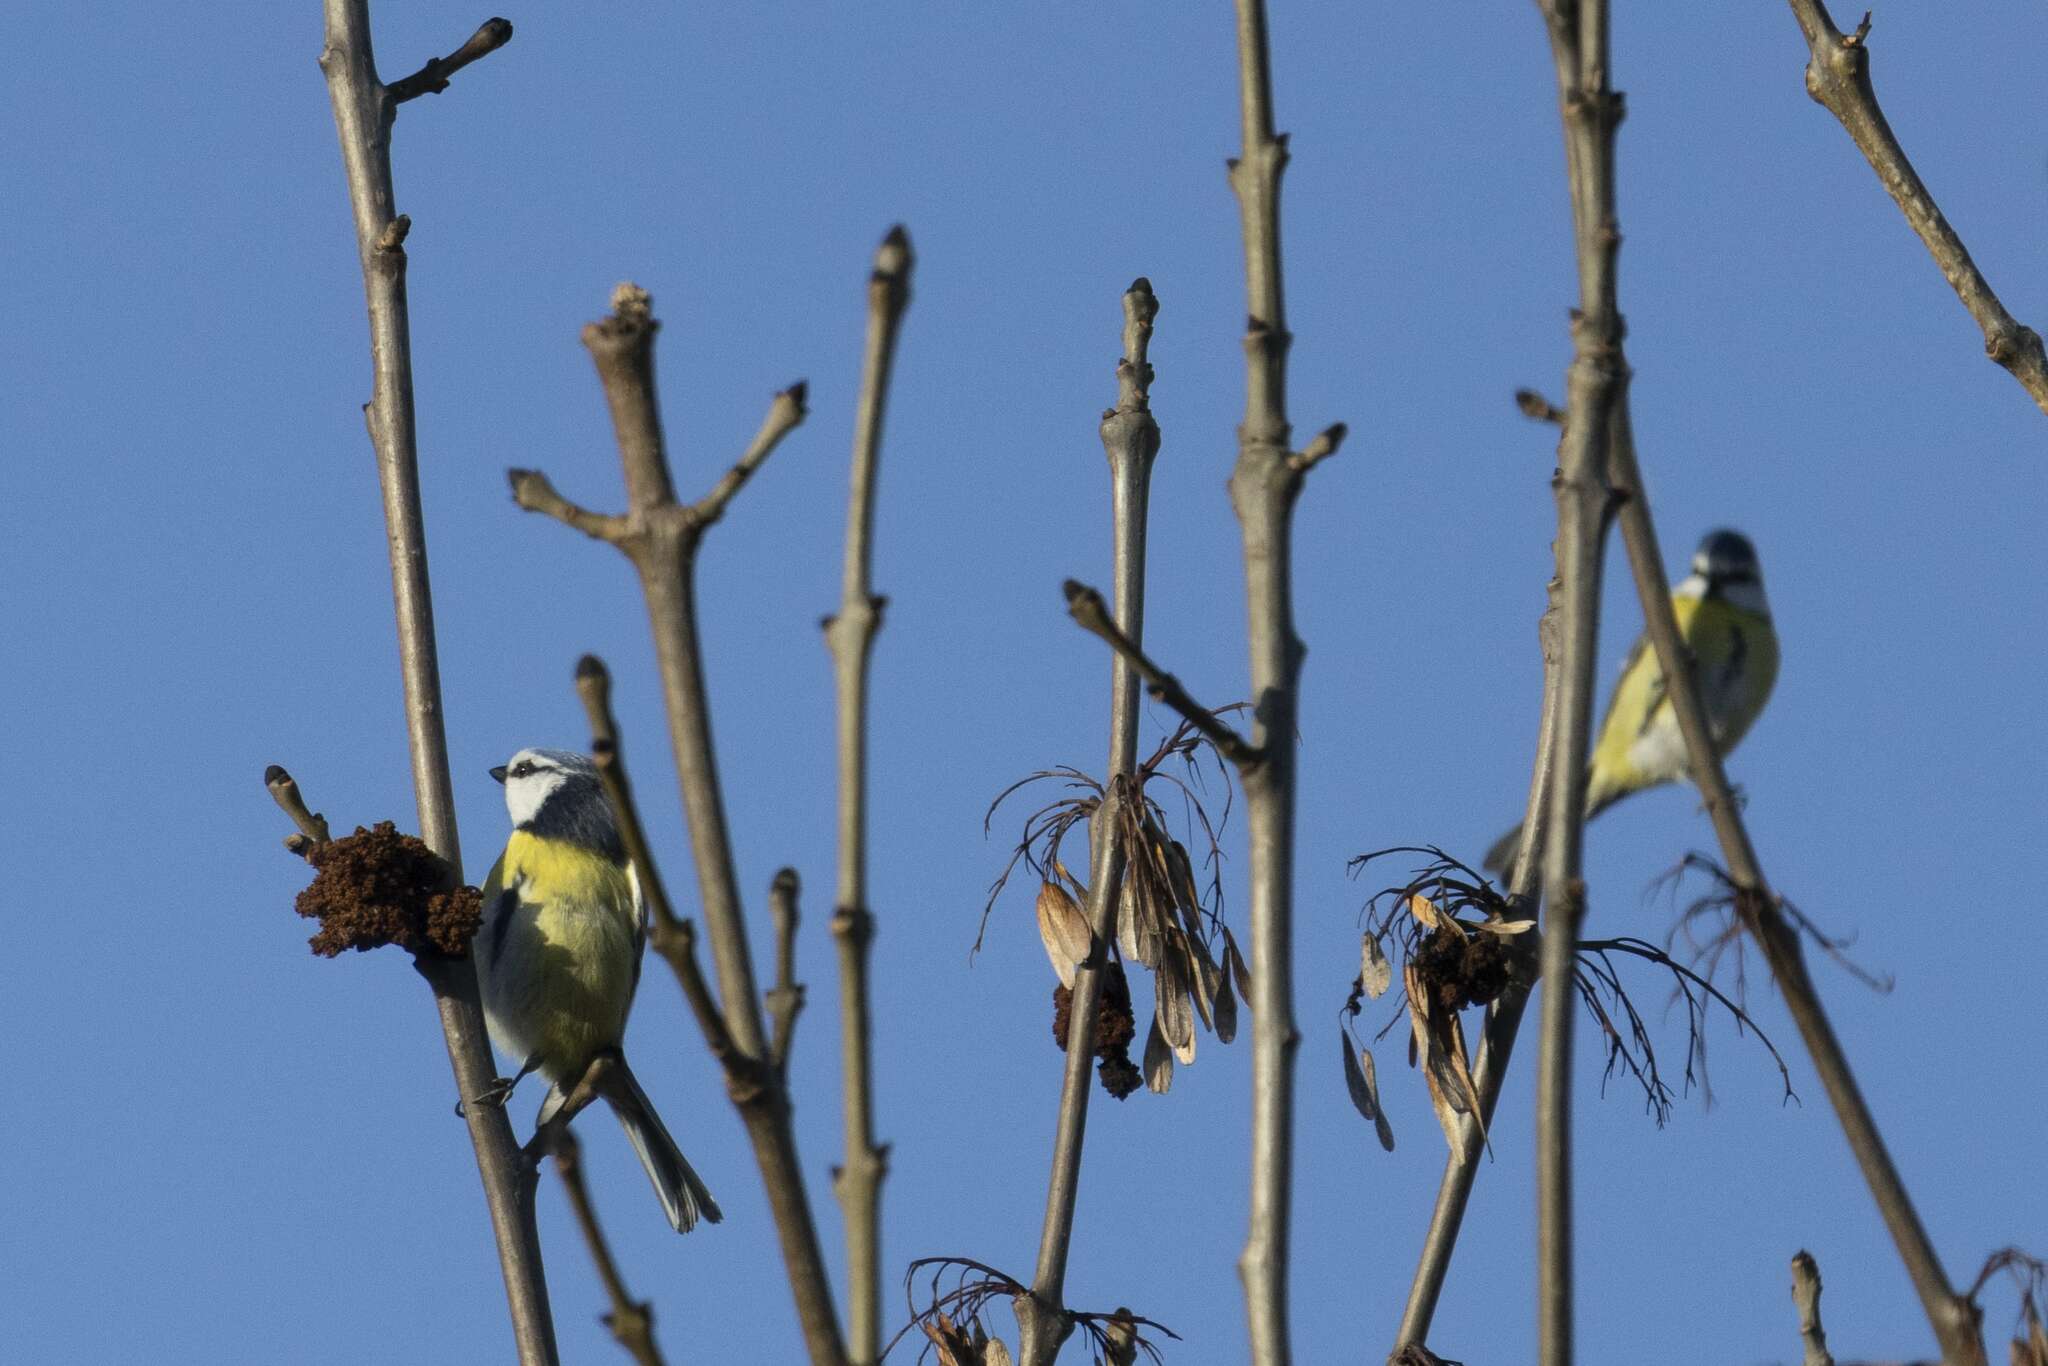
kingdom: Animalia
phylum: Chordata
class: Aves
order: Passeriformes
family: Paridae
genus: Cyanistes
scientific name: Cyanistes caeruleus
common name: Eurasian blue tit
